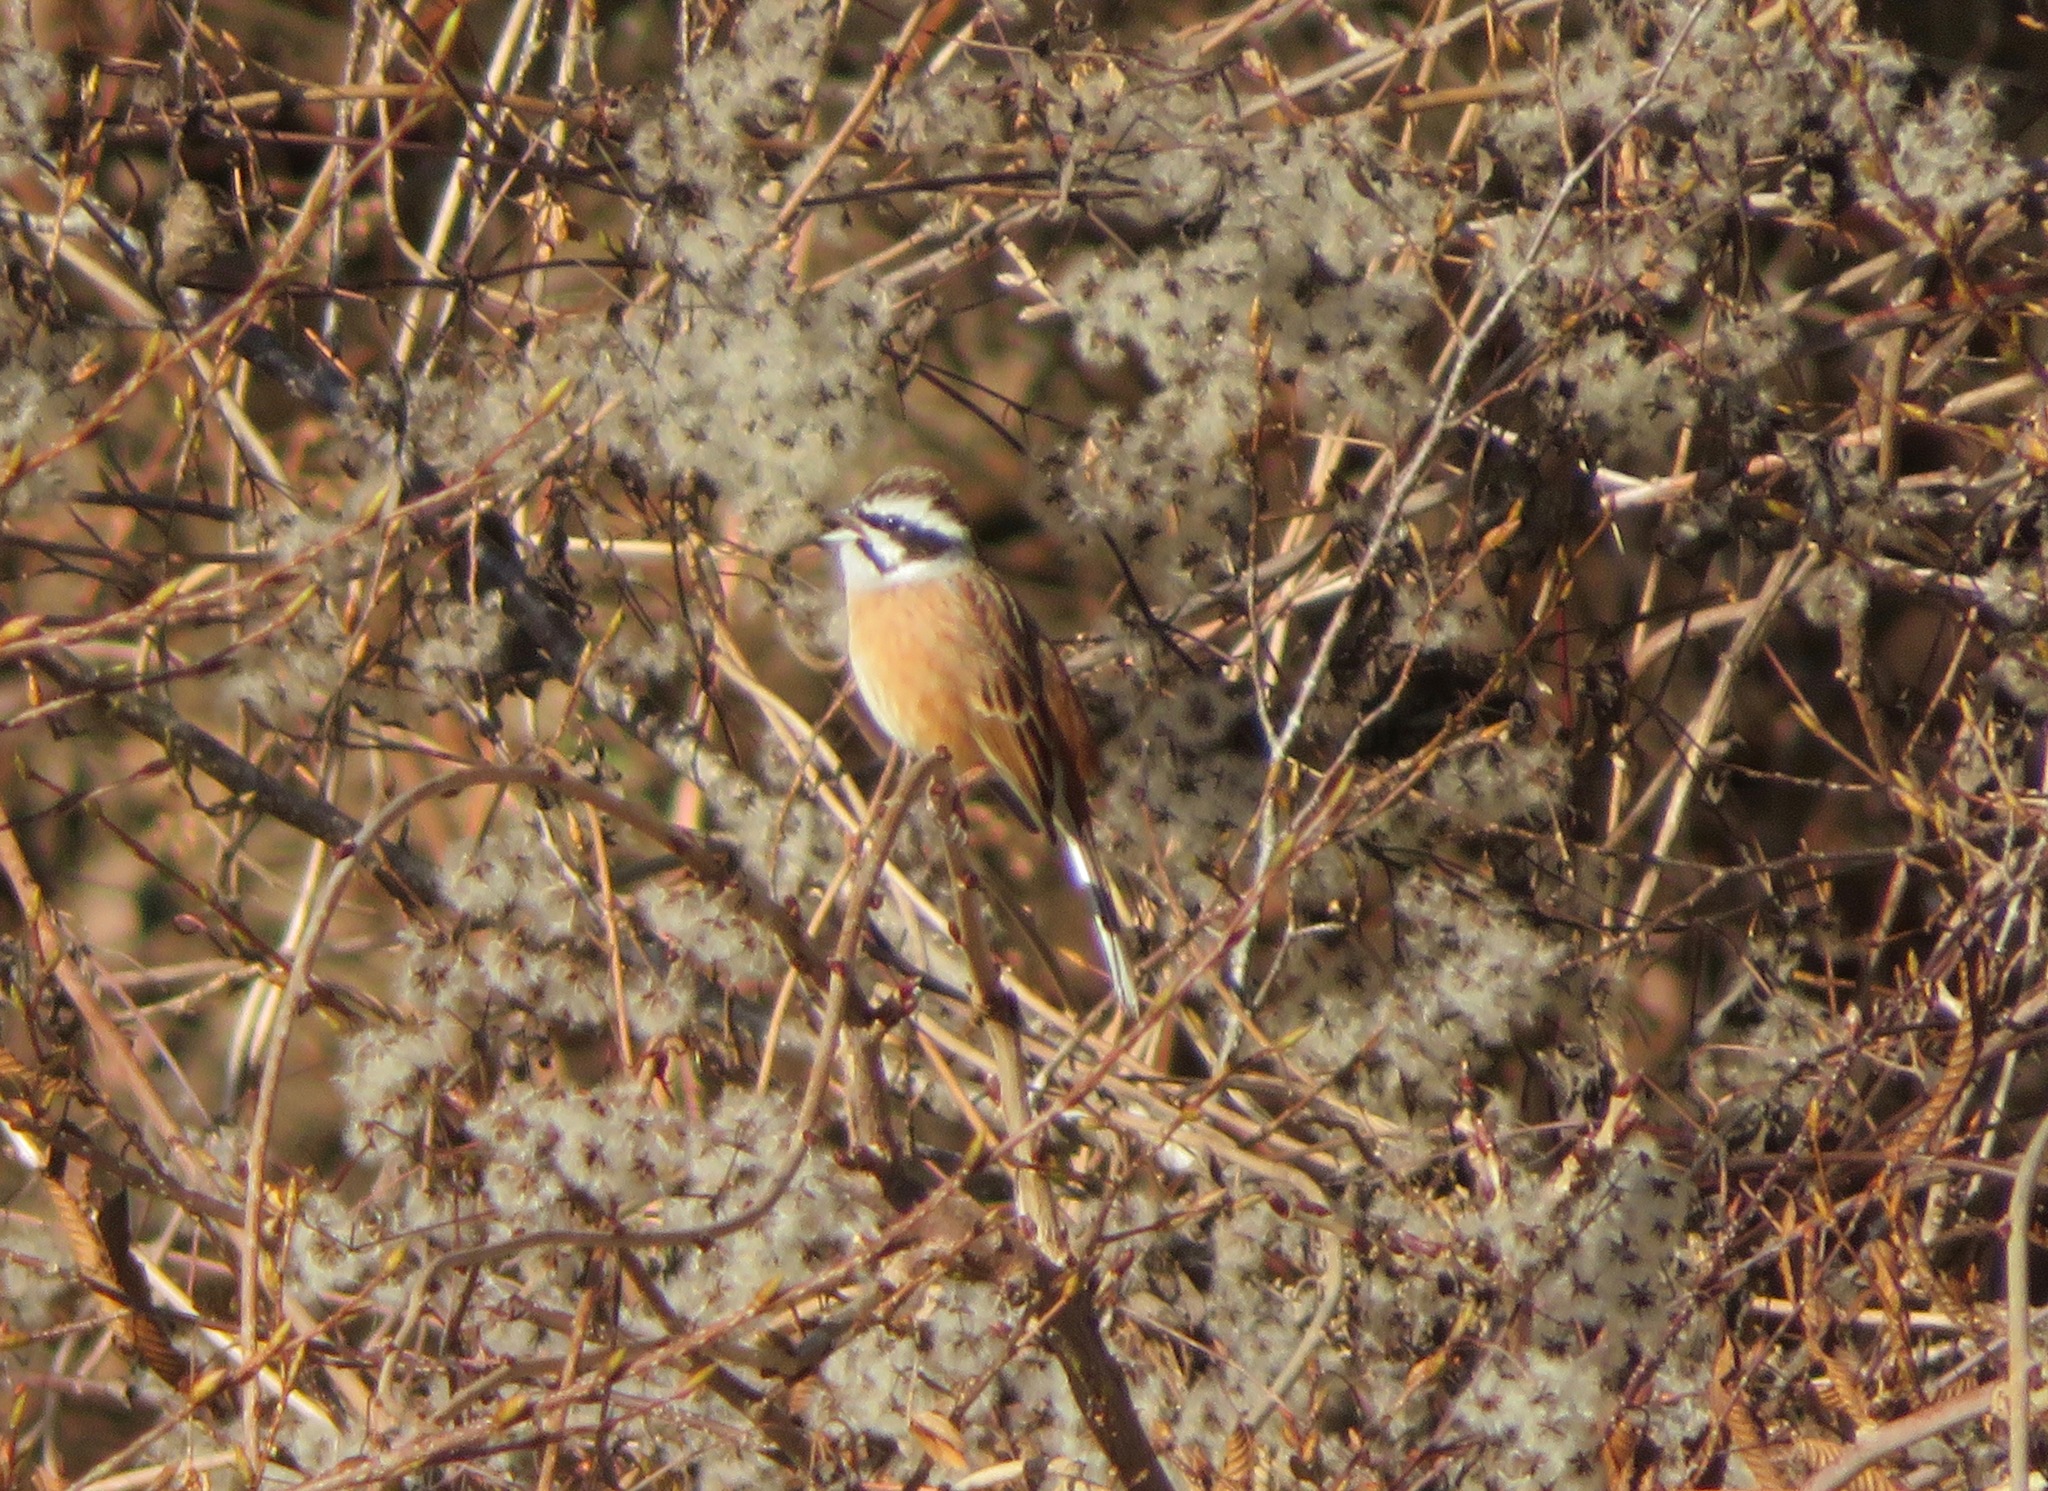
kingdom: Animalia
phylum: Chordata
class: Aves
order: Passeriformes
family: Emberizidae
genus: Emberiza
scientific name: Emberiza cioides
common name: Meadow bunting
